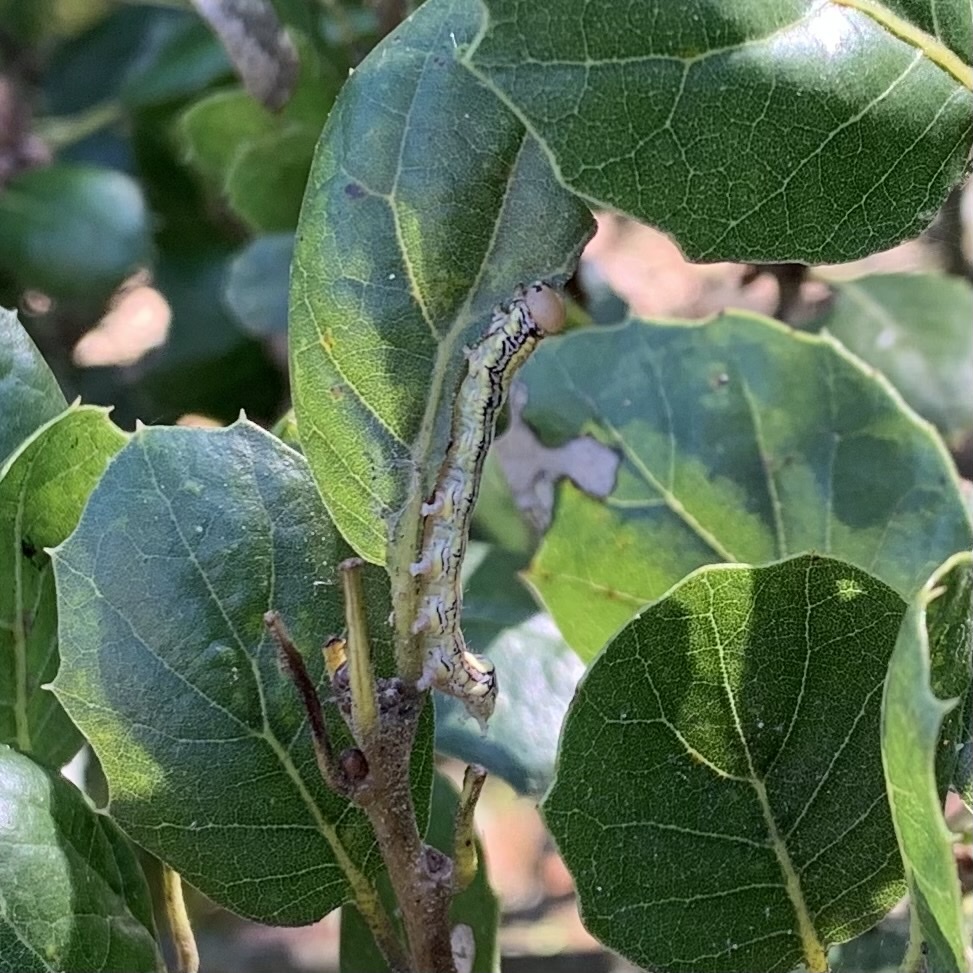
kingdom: Animalia
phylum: Arthropoda
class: Insecta
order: Lepidoptera
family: Notodontidae
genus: Phryganidia
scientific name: Phryganidia californica
